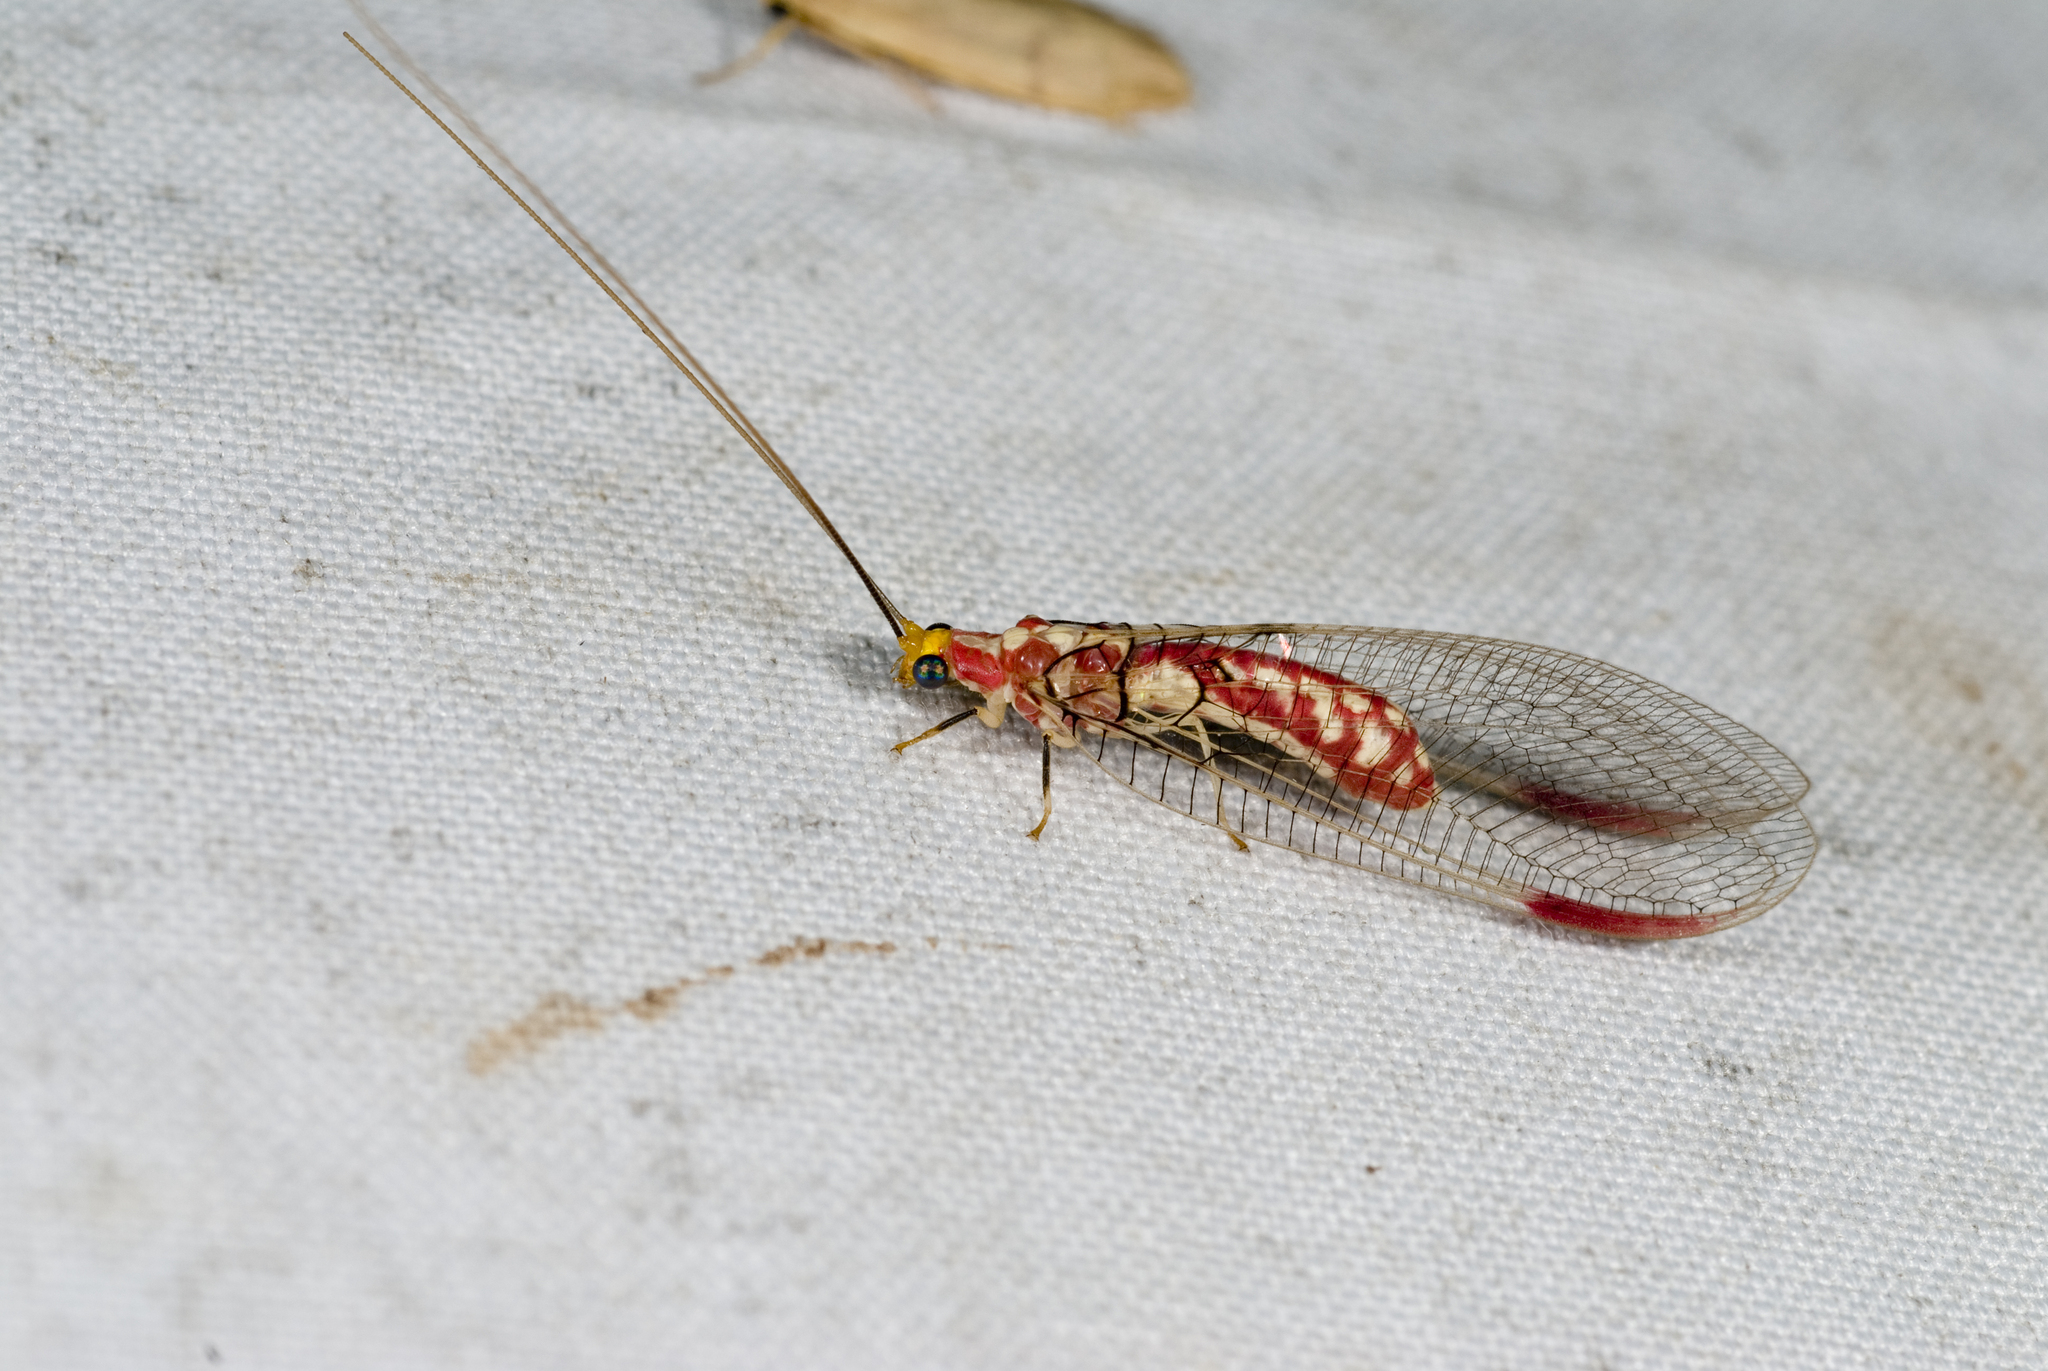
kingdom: Animalia
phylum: Arthropoda
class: Insecta
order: Neuroptera
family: Chrysopidae
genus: Italochrysa
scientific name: Italochrysa uchidae
